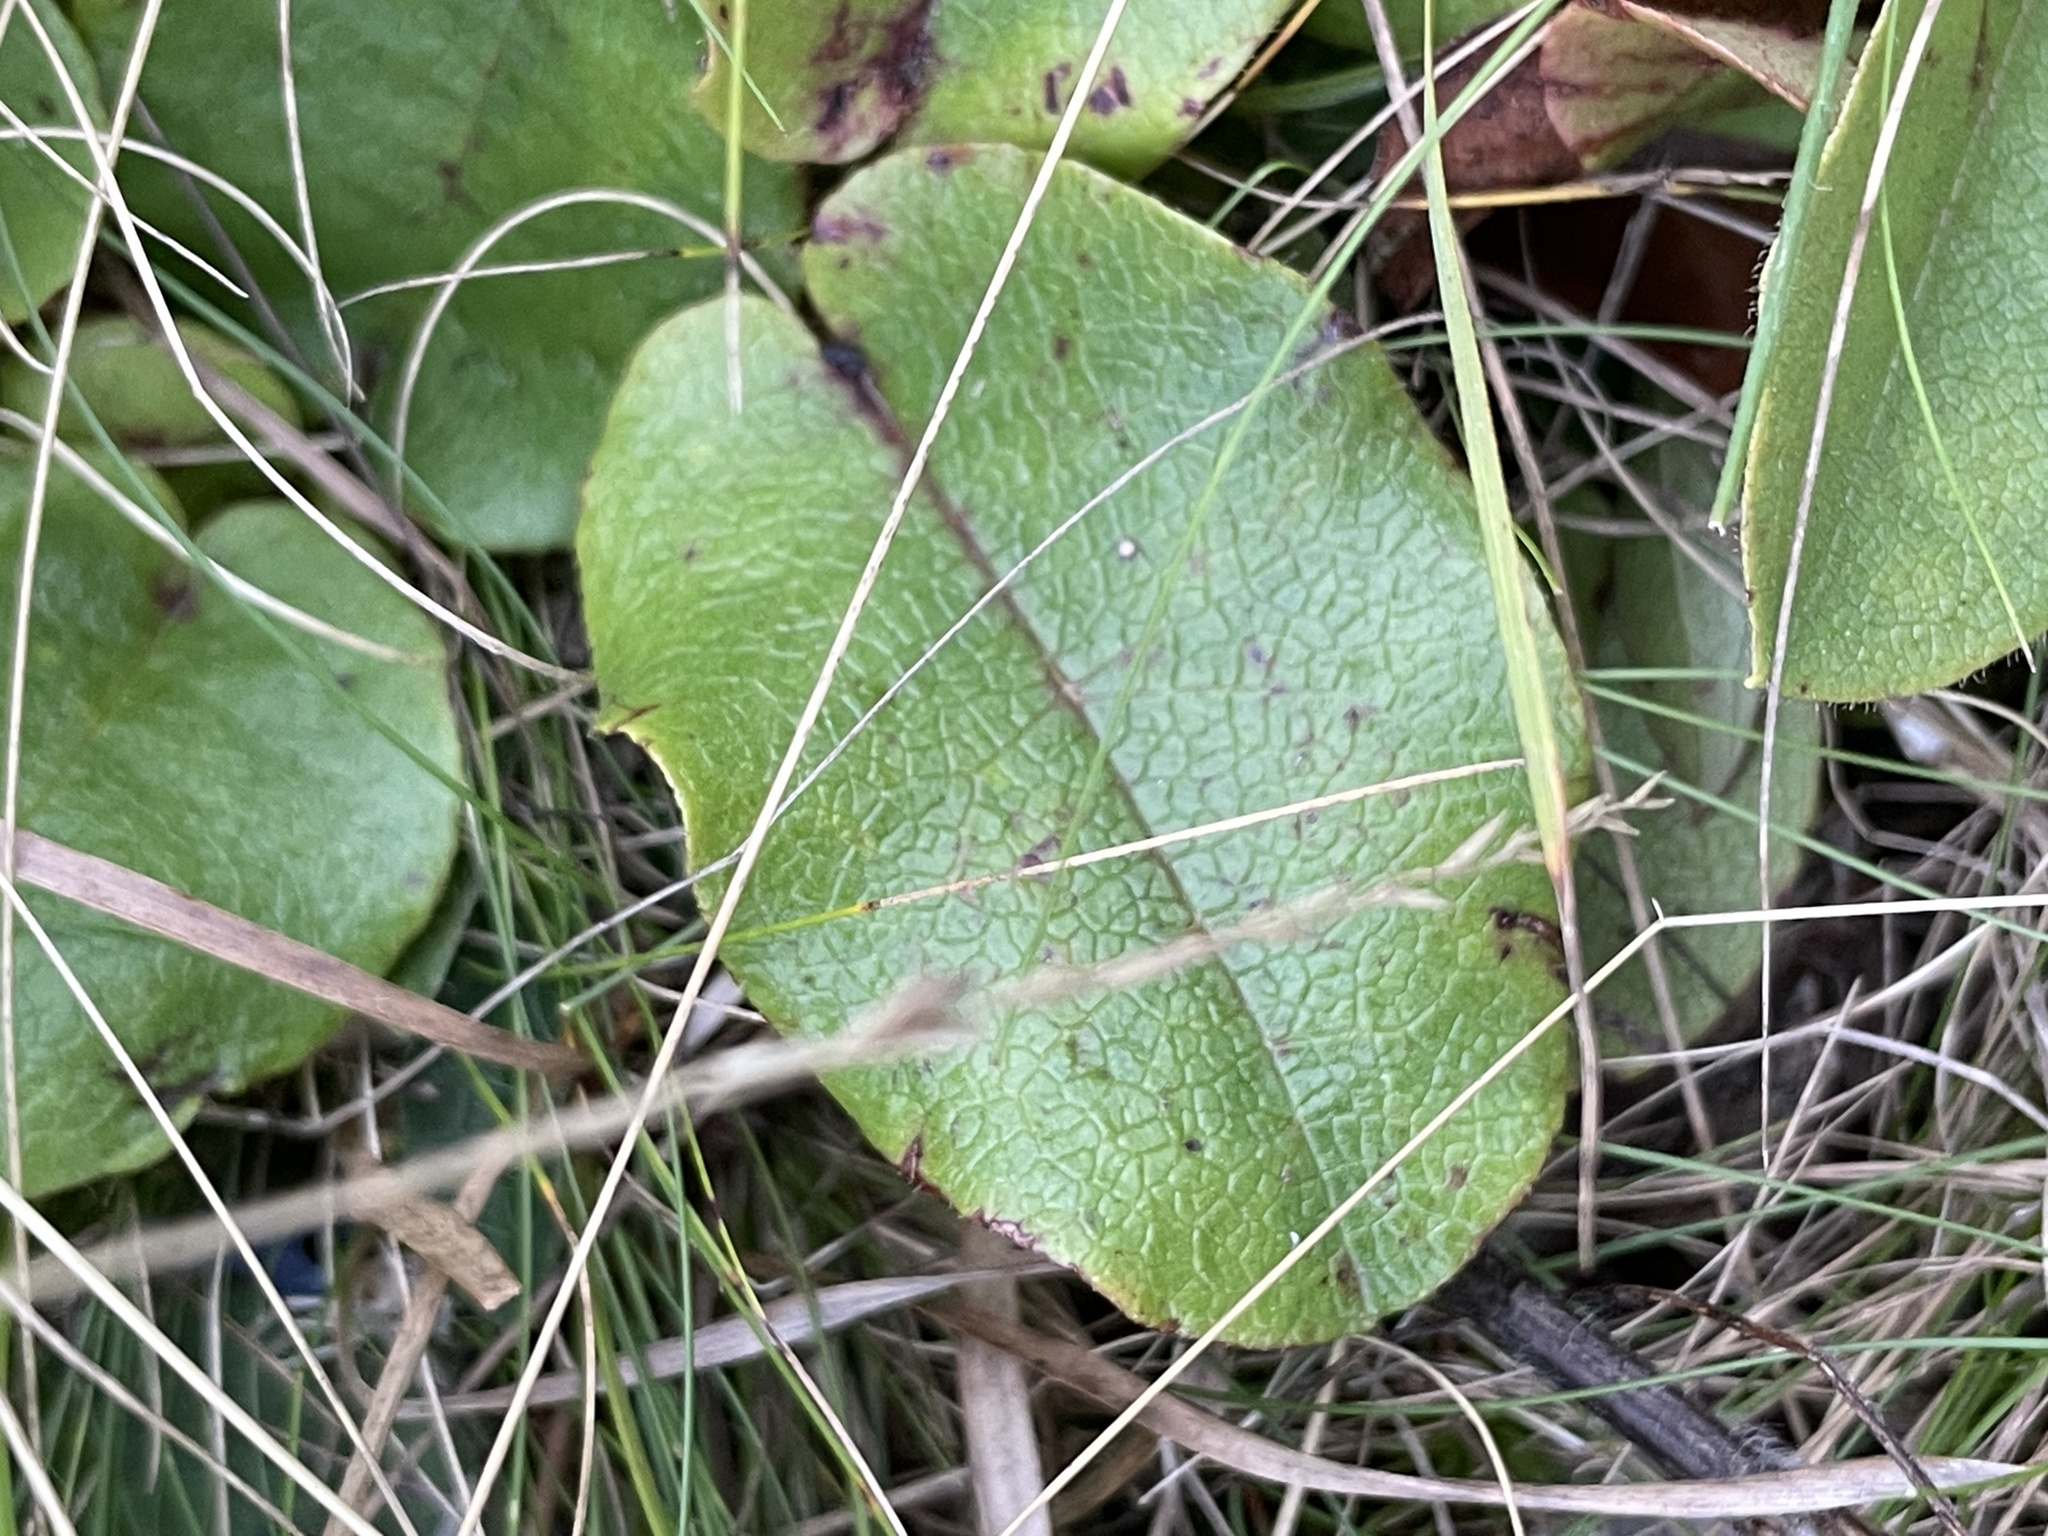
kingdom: Plantae
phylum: Tracheophyta
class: Magnoliopsida
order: Ericales
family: Ericaceae
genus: Epigaea
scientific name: Epigaea repens
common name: Gravelroot
